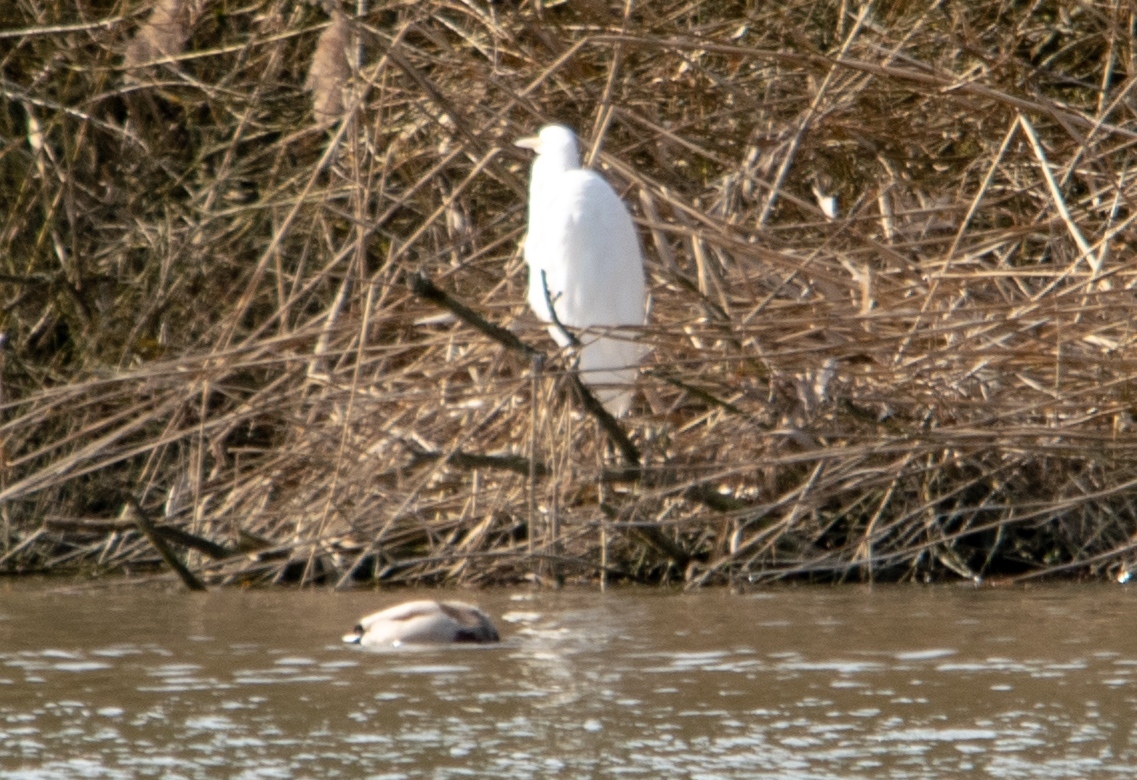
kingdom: Animalia
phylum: Chordata
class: Aves
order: Pelecaniformes
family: Ardeidae
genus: Ardea
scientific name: Ardea alba
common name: Great egret
